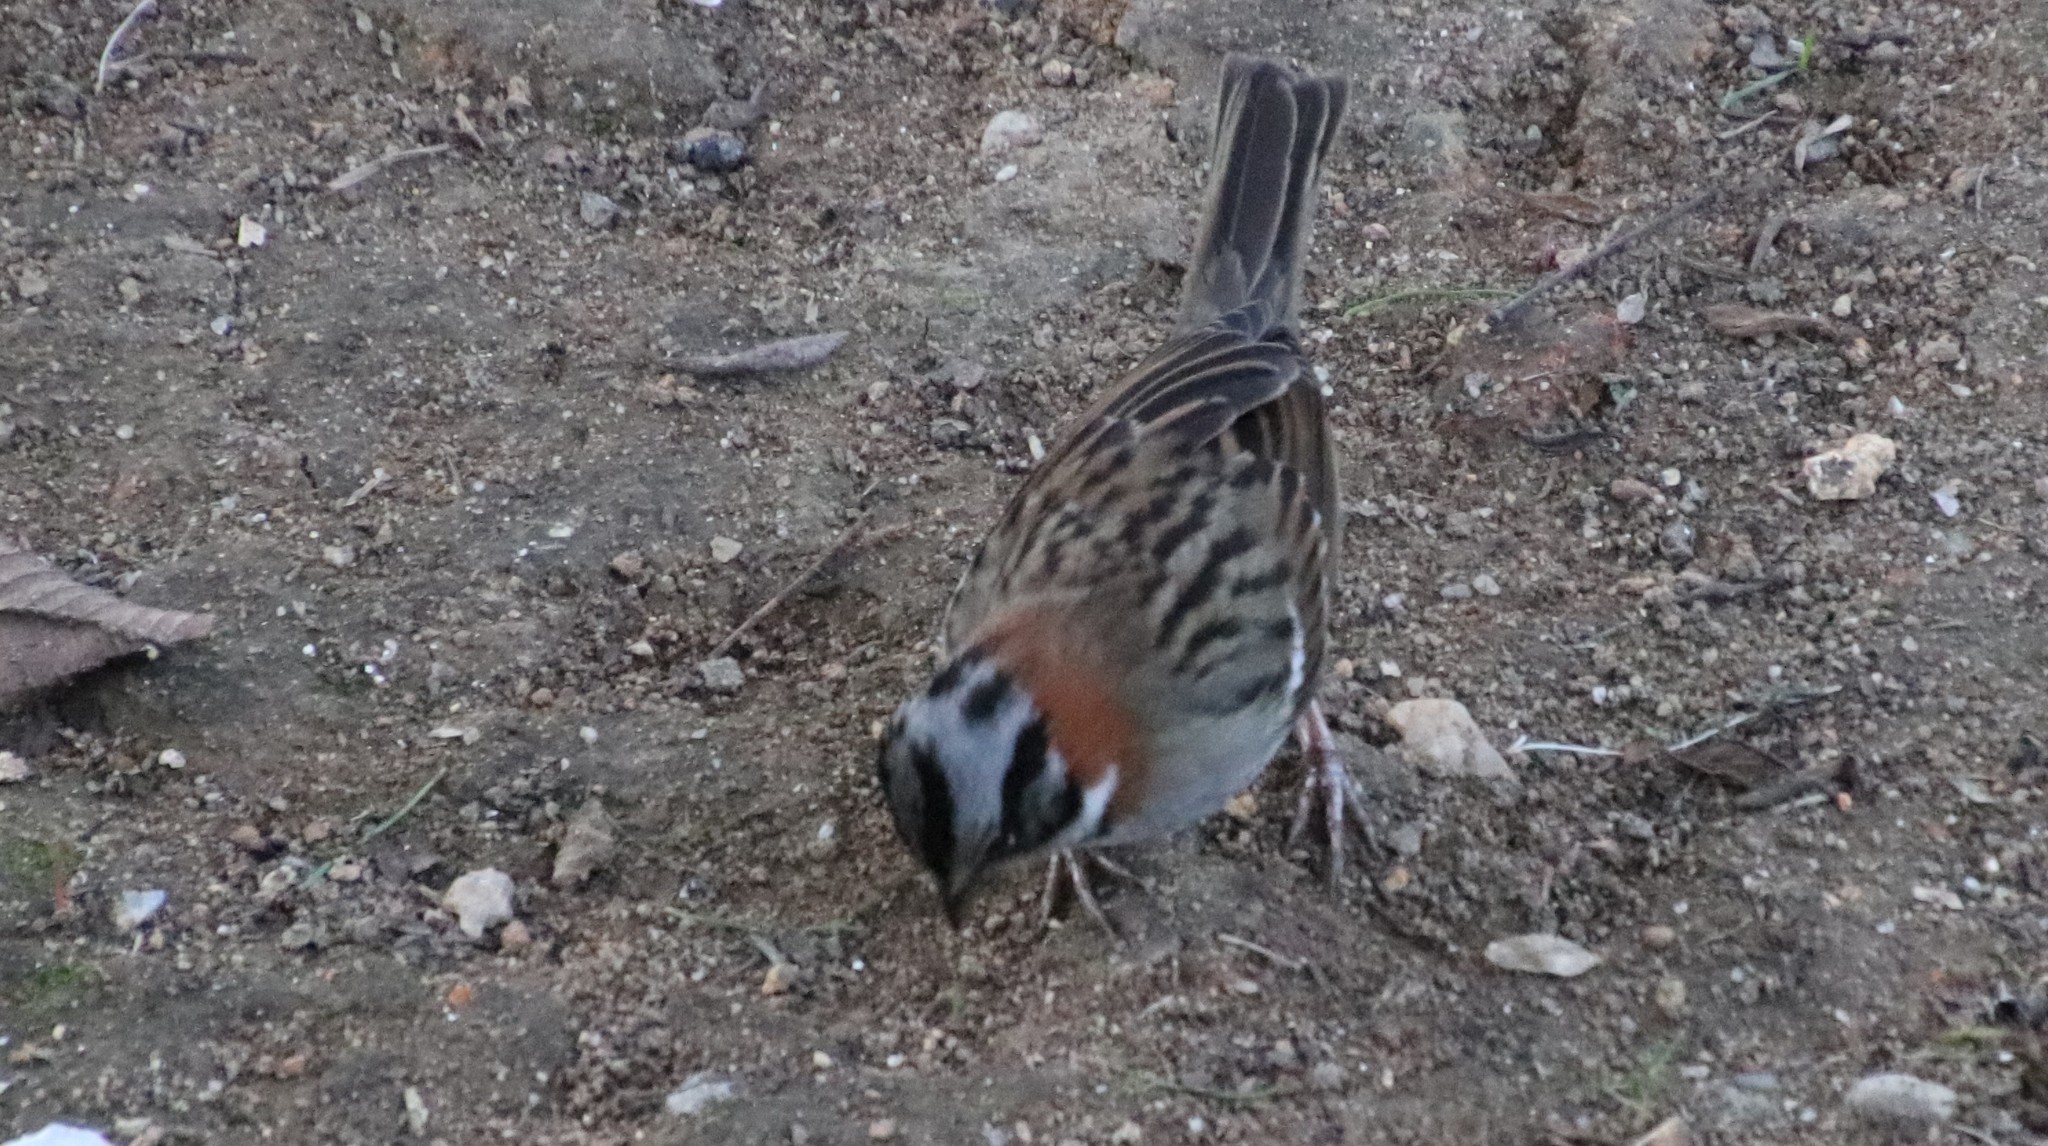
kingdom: Animalia
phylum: Chordata
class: Aves
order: Passeriformes
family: Passerellidae
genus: Zonotrichia
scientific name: Zonotrichia capensis
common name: Rufous-collared sparrow
